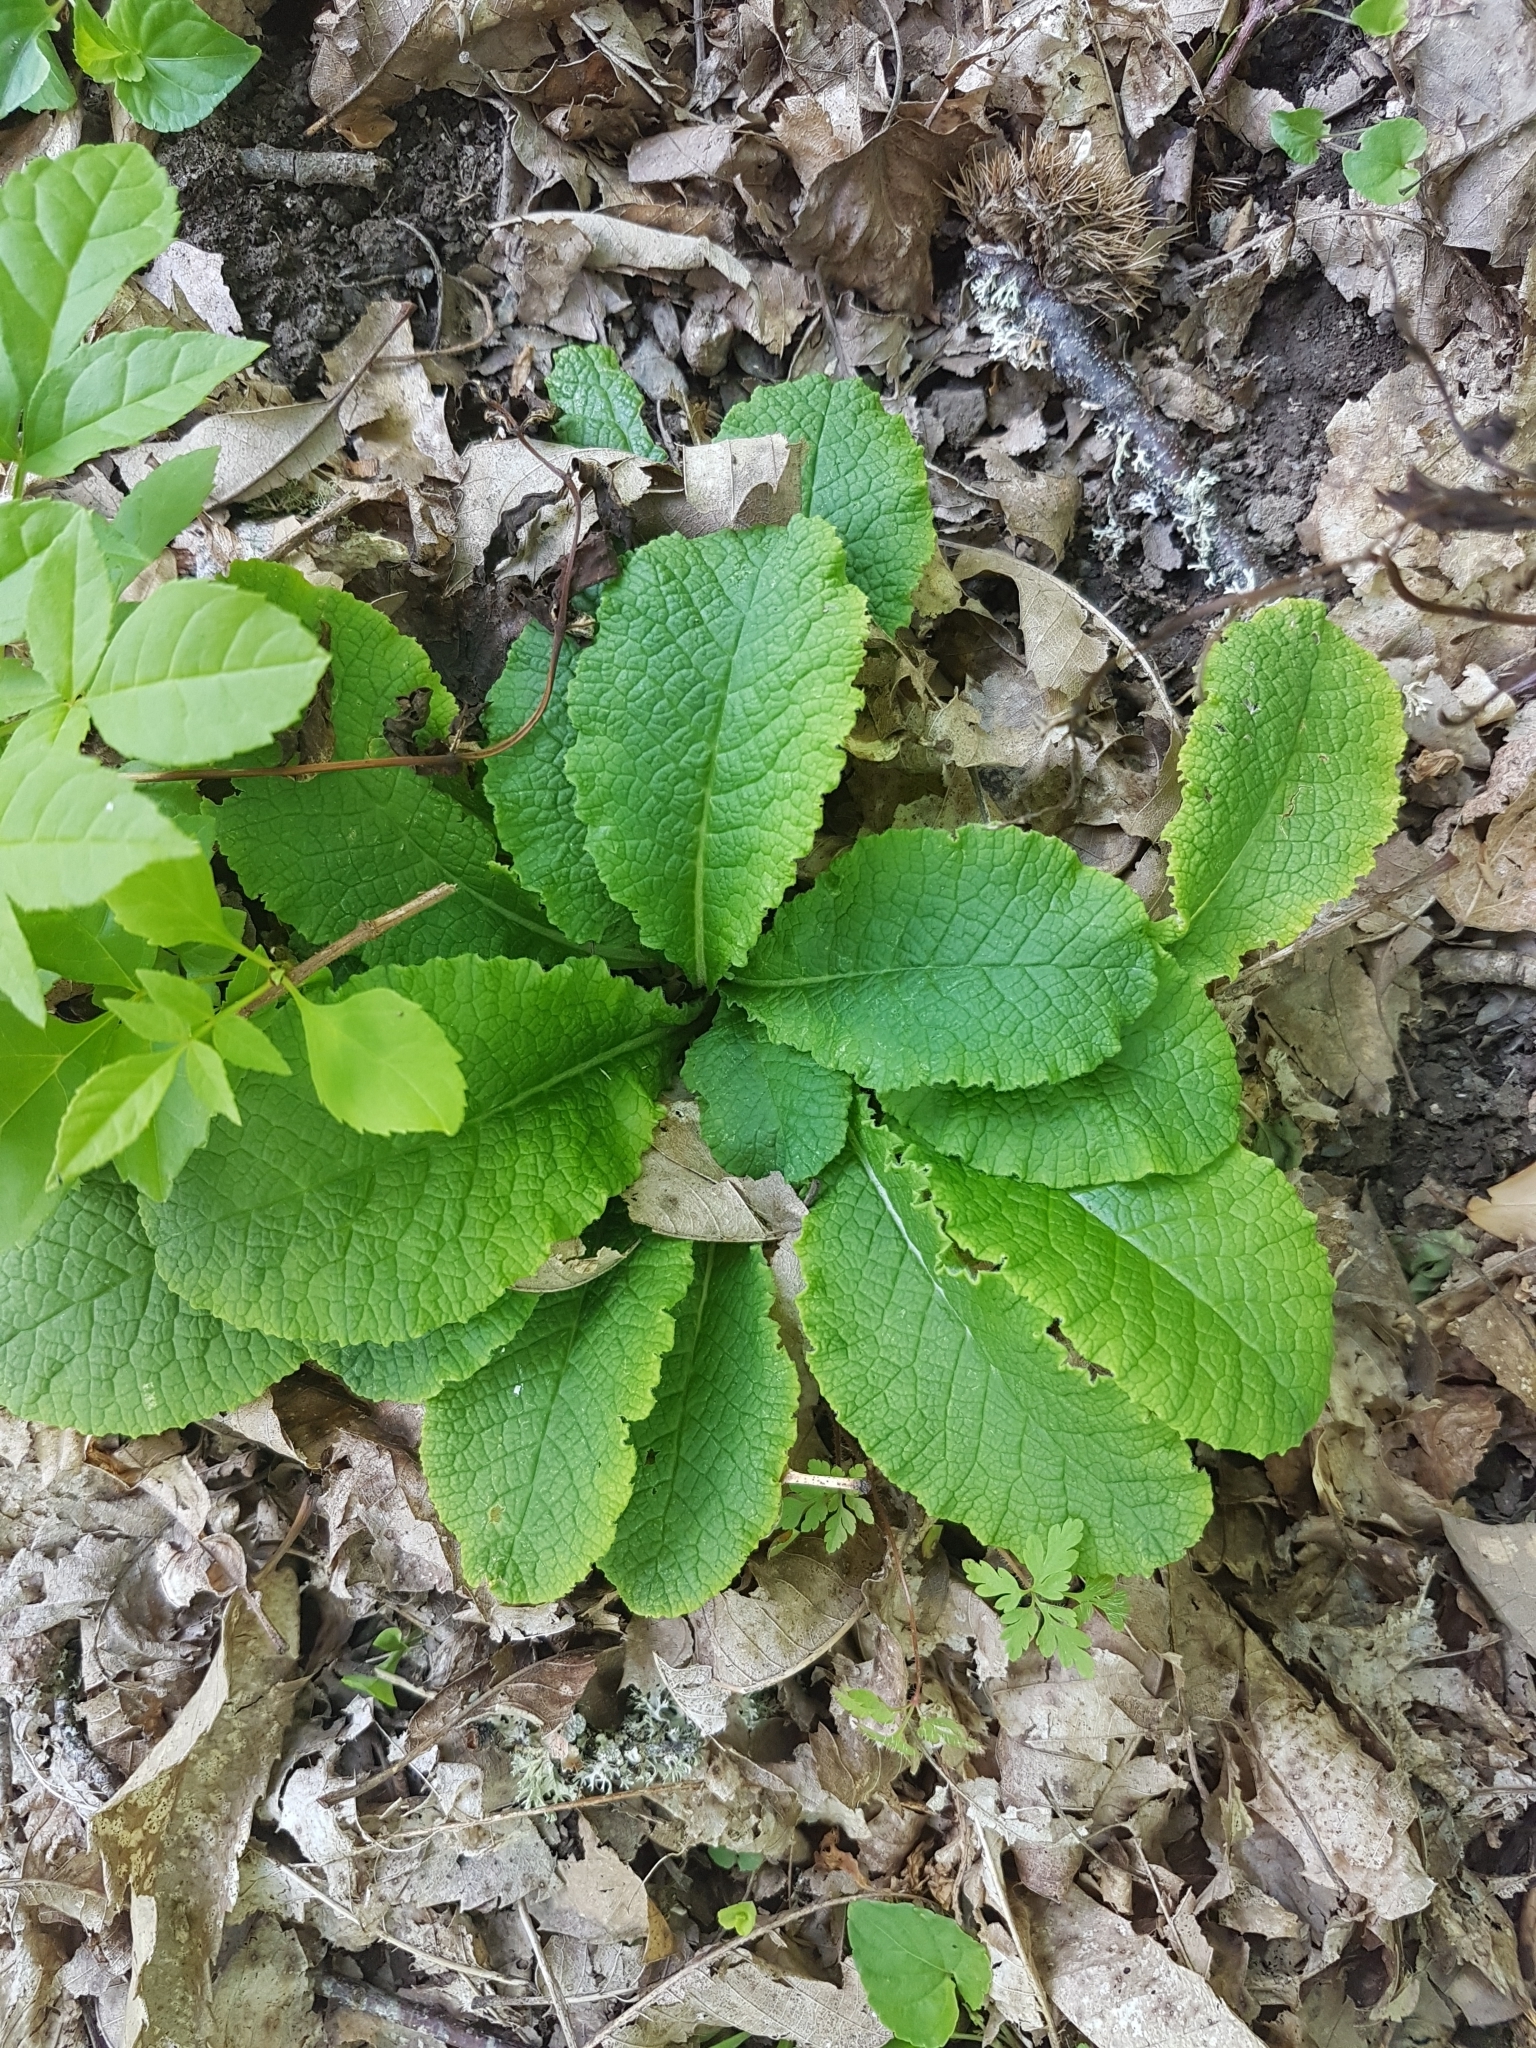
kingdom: Plantae
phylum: Tracheophyta
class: Magnoliopsida
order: Ericales
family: Primulaceae
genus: Primula
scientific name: Primula vulgaris
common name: Primrose
